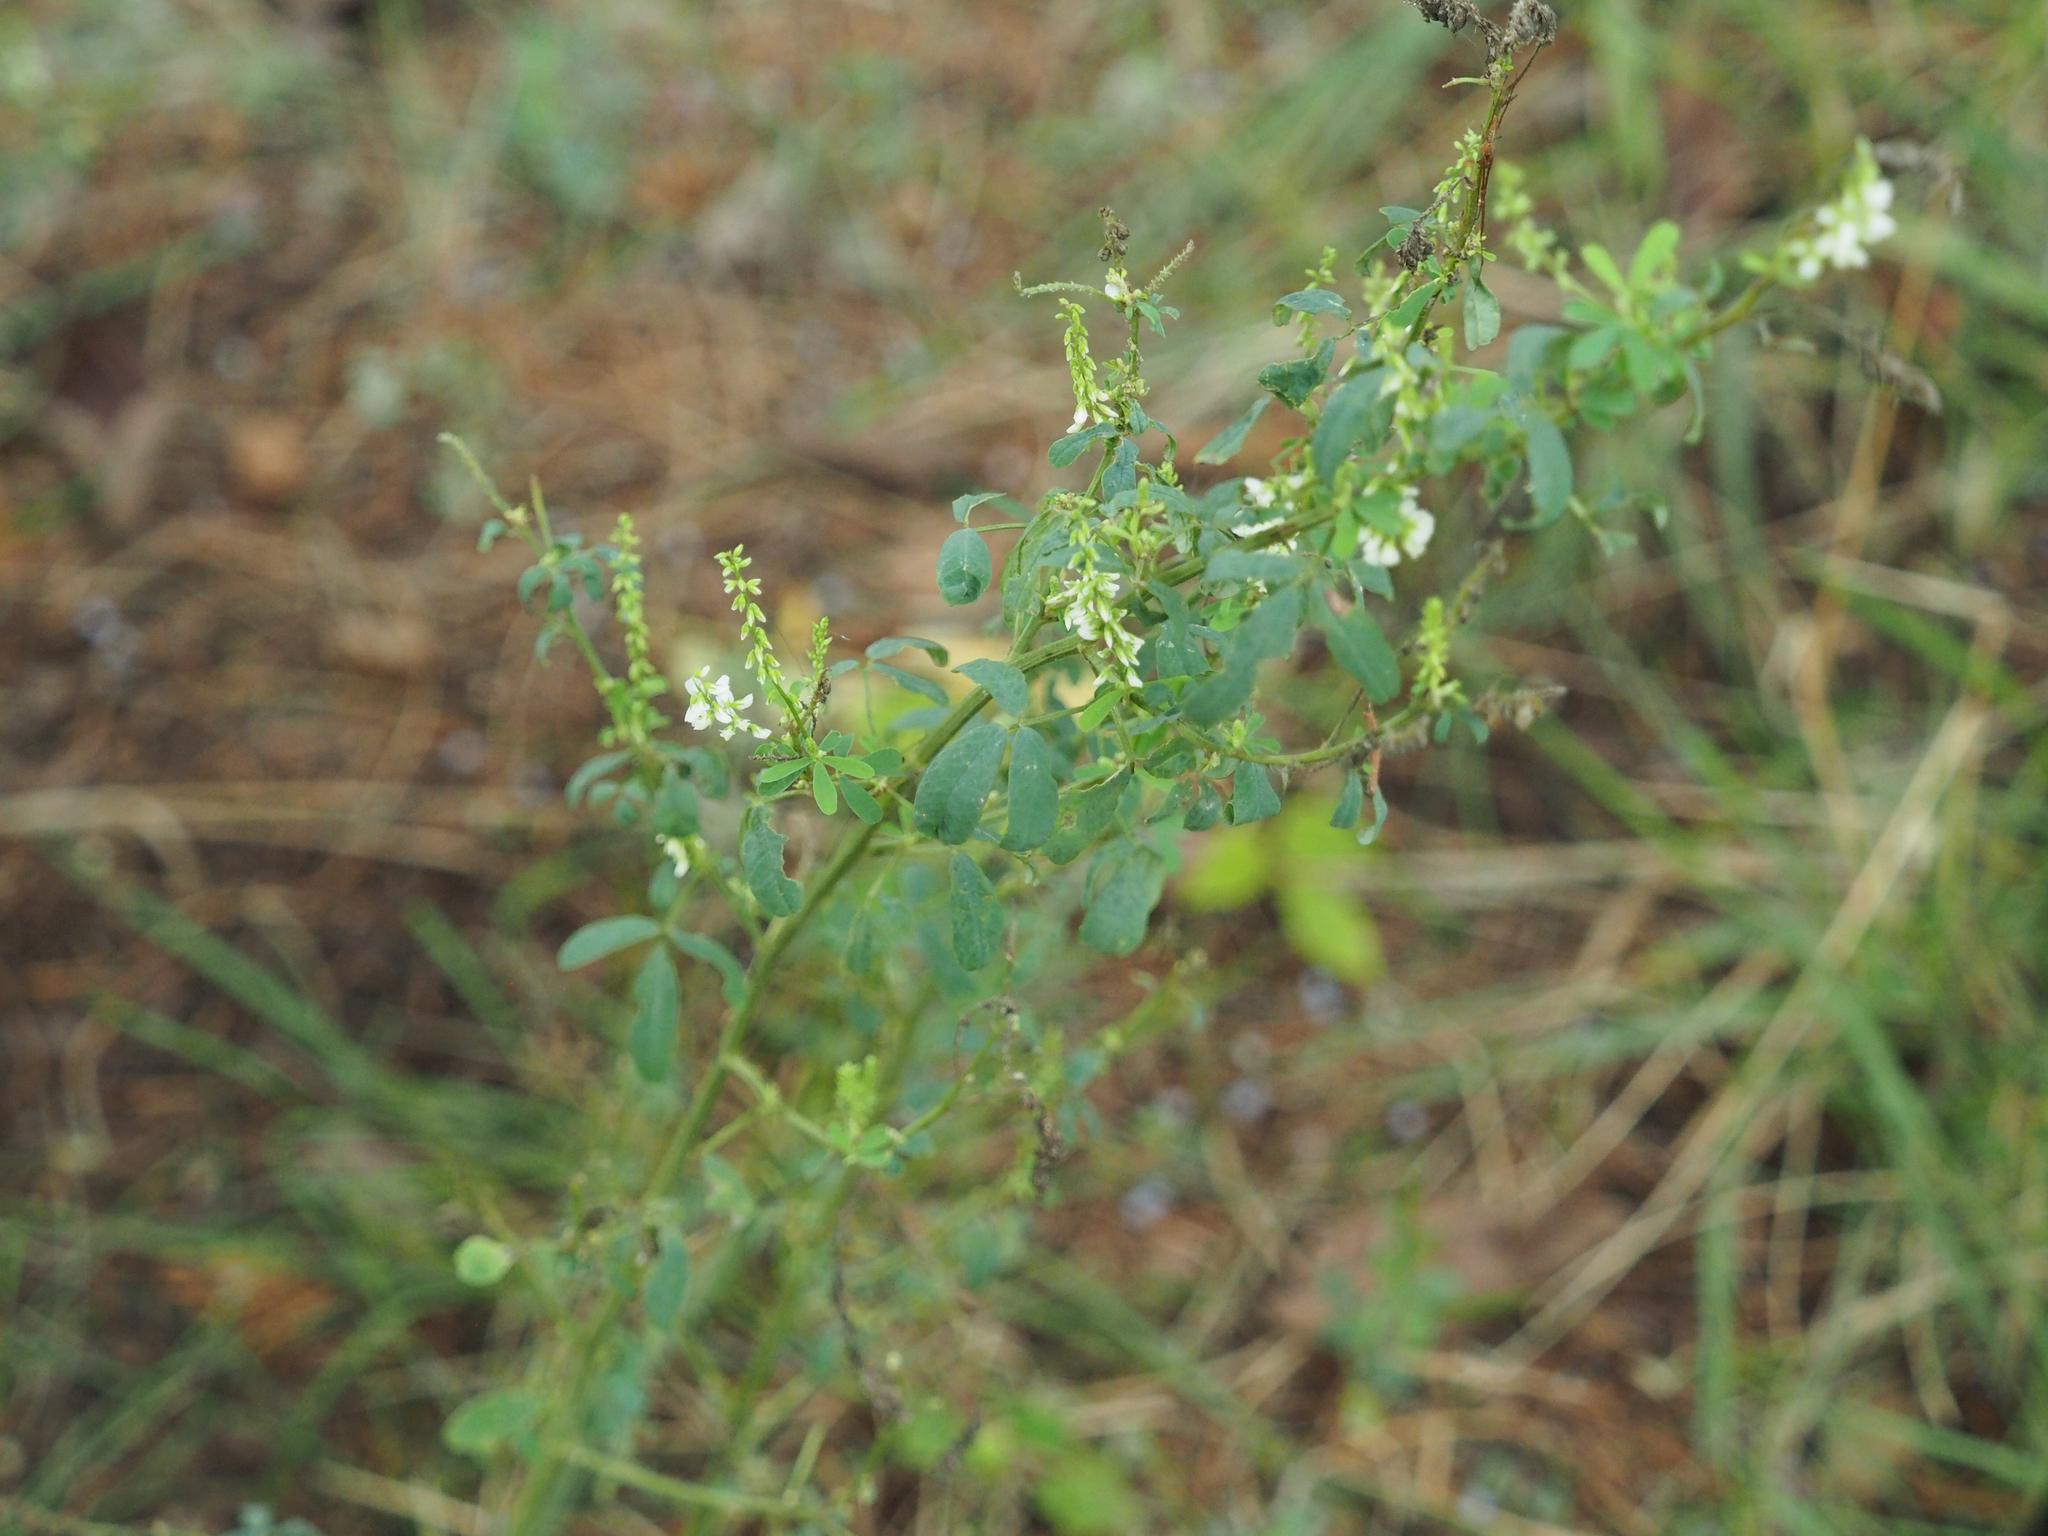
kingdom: Plantae
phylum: Tracheophyta
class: Magnoliopsida
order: Fabales
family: Fabaceae
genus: Melilotus
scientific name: Melilotus albus
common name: White melilot
